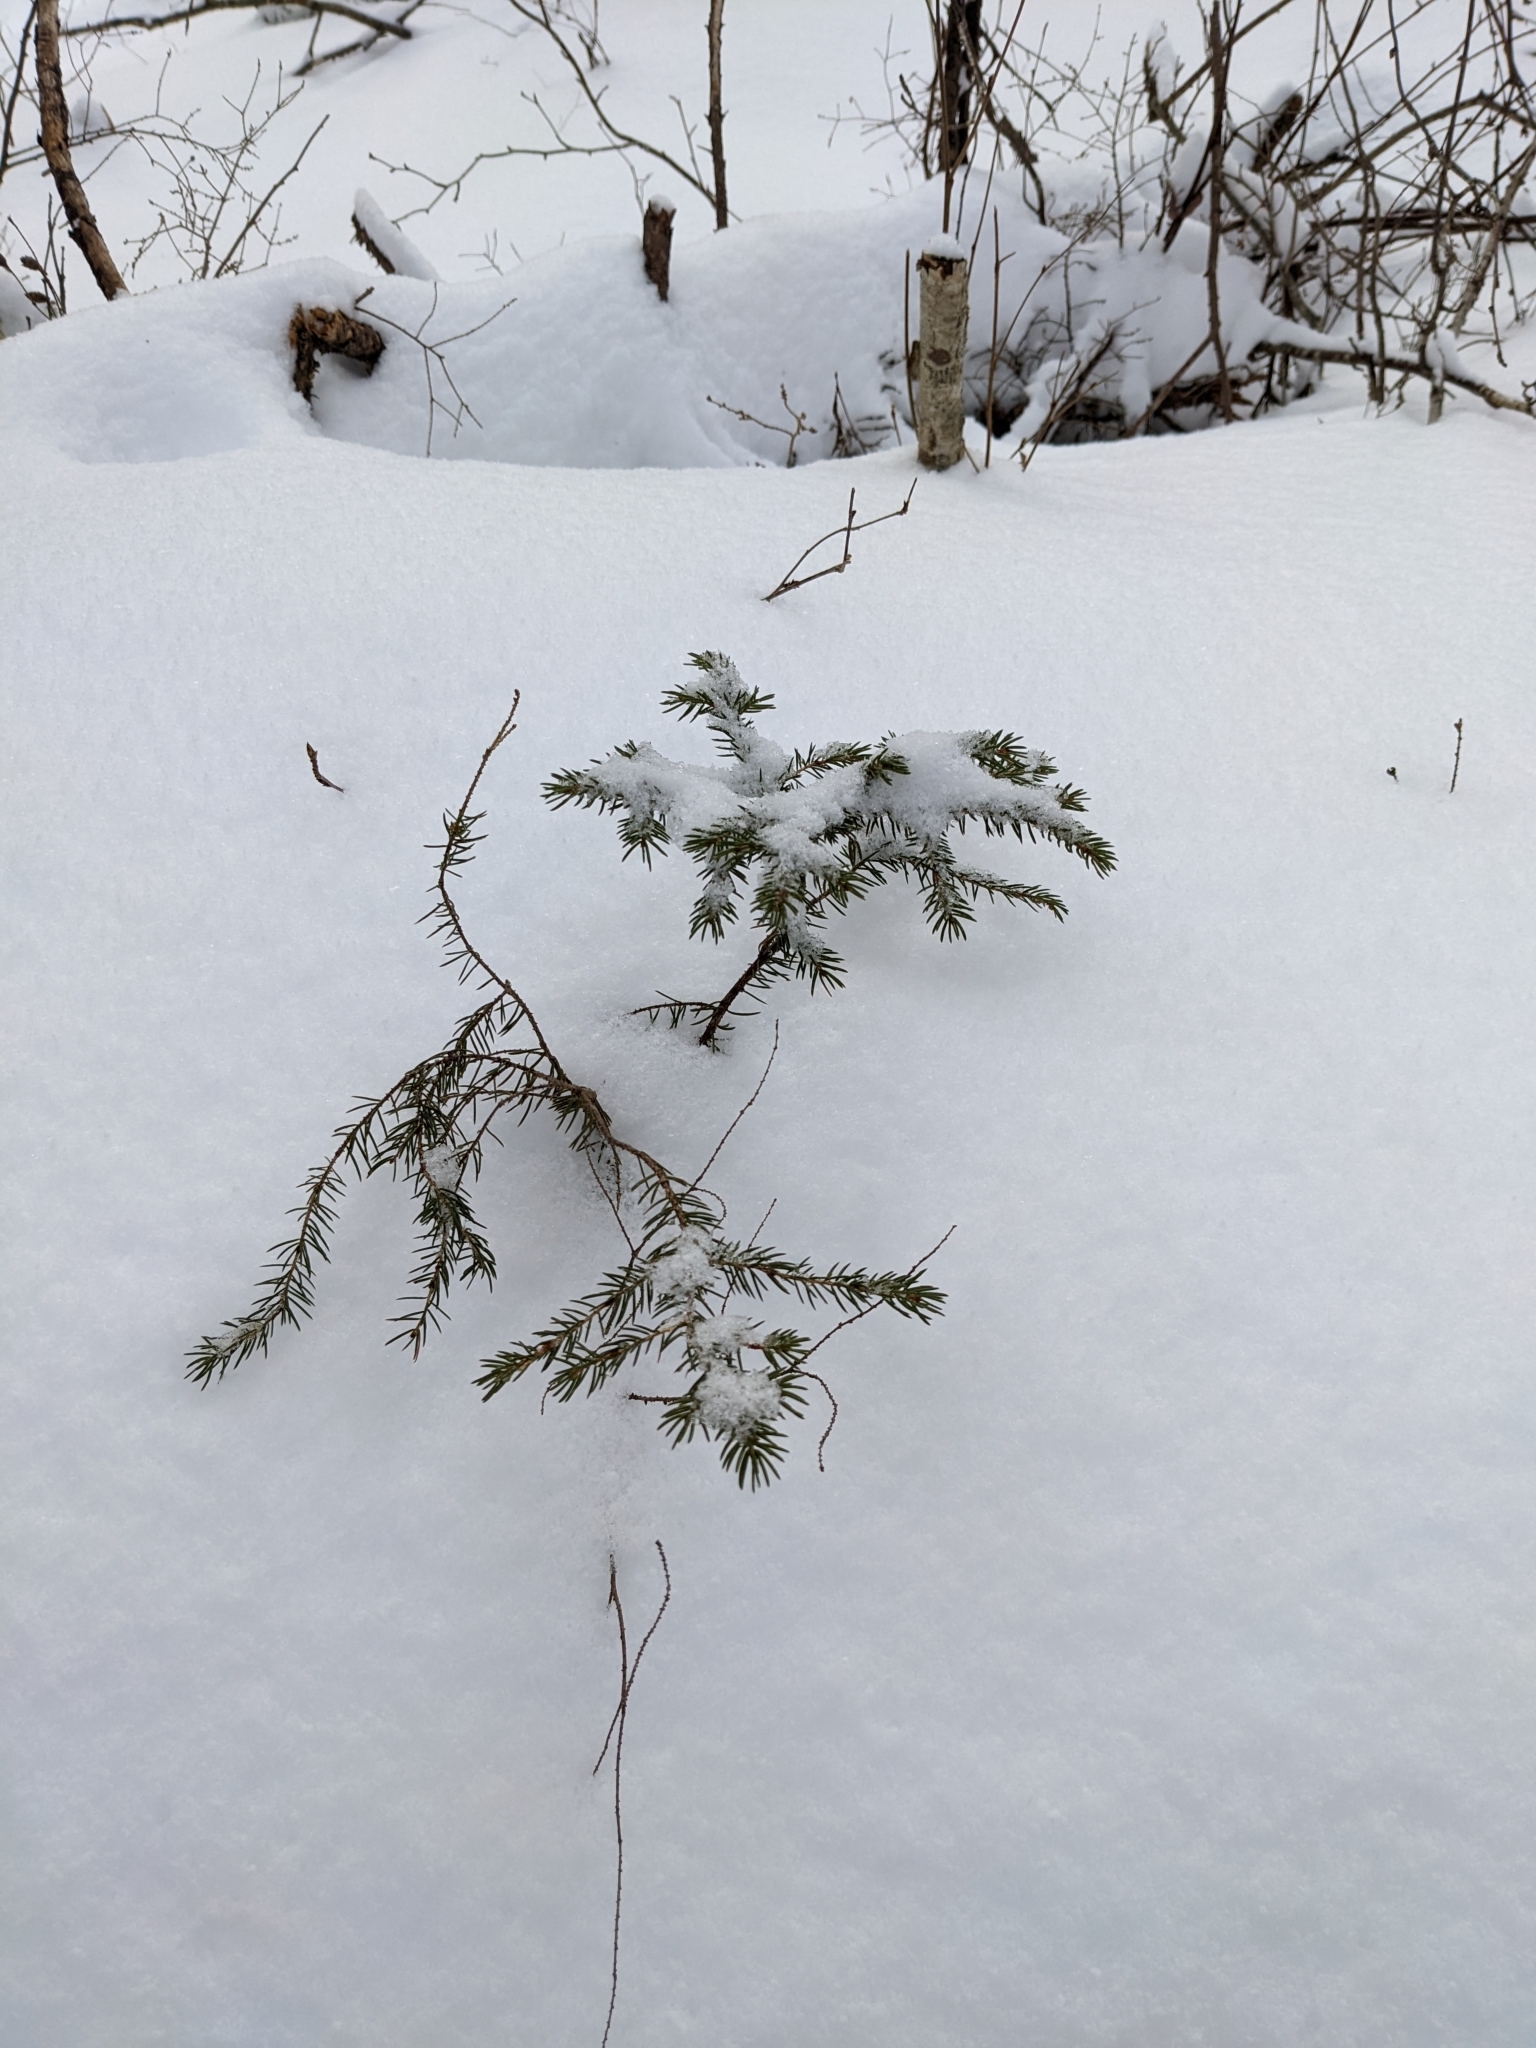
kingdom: Plantae
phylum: Tracheophyta
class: Pinopsida
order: Pinales
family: Pinaceae
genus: Picea
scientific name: Picea rubens
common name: Red spruce
